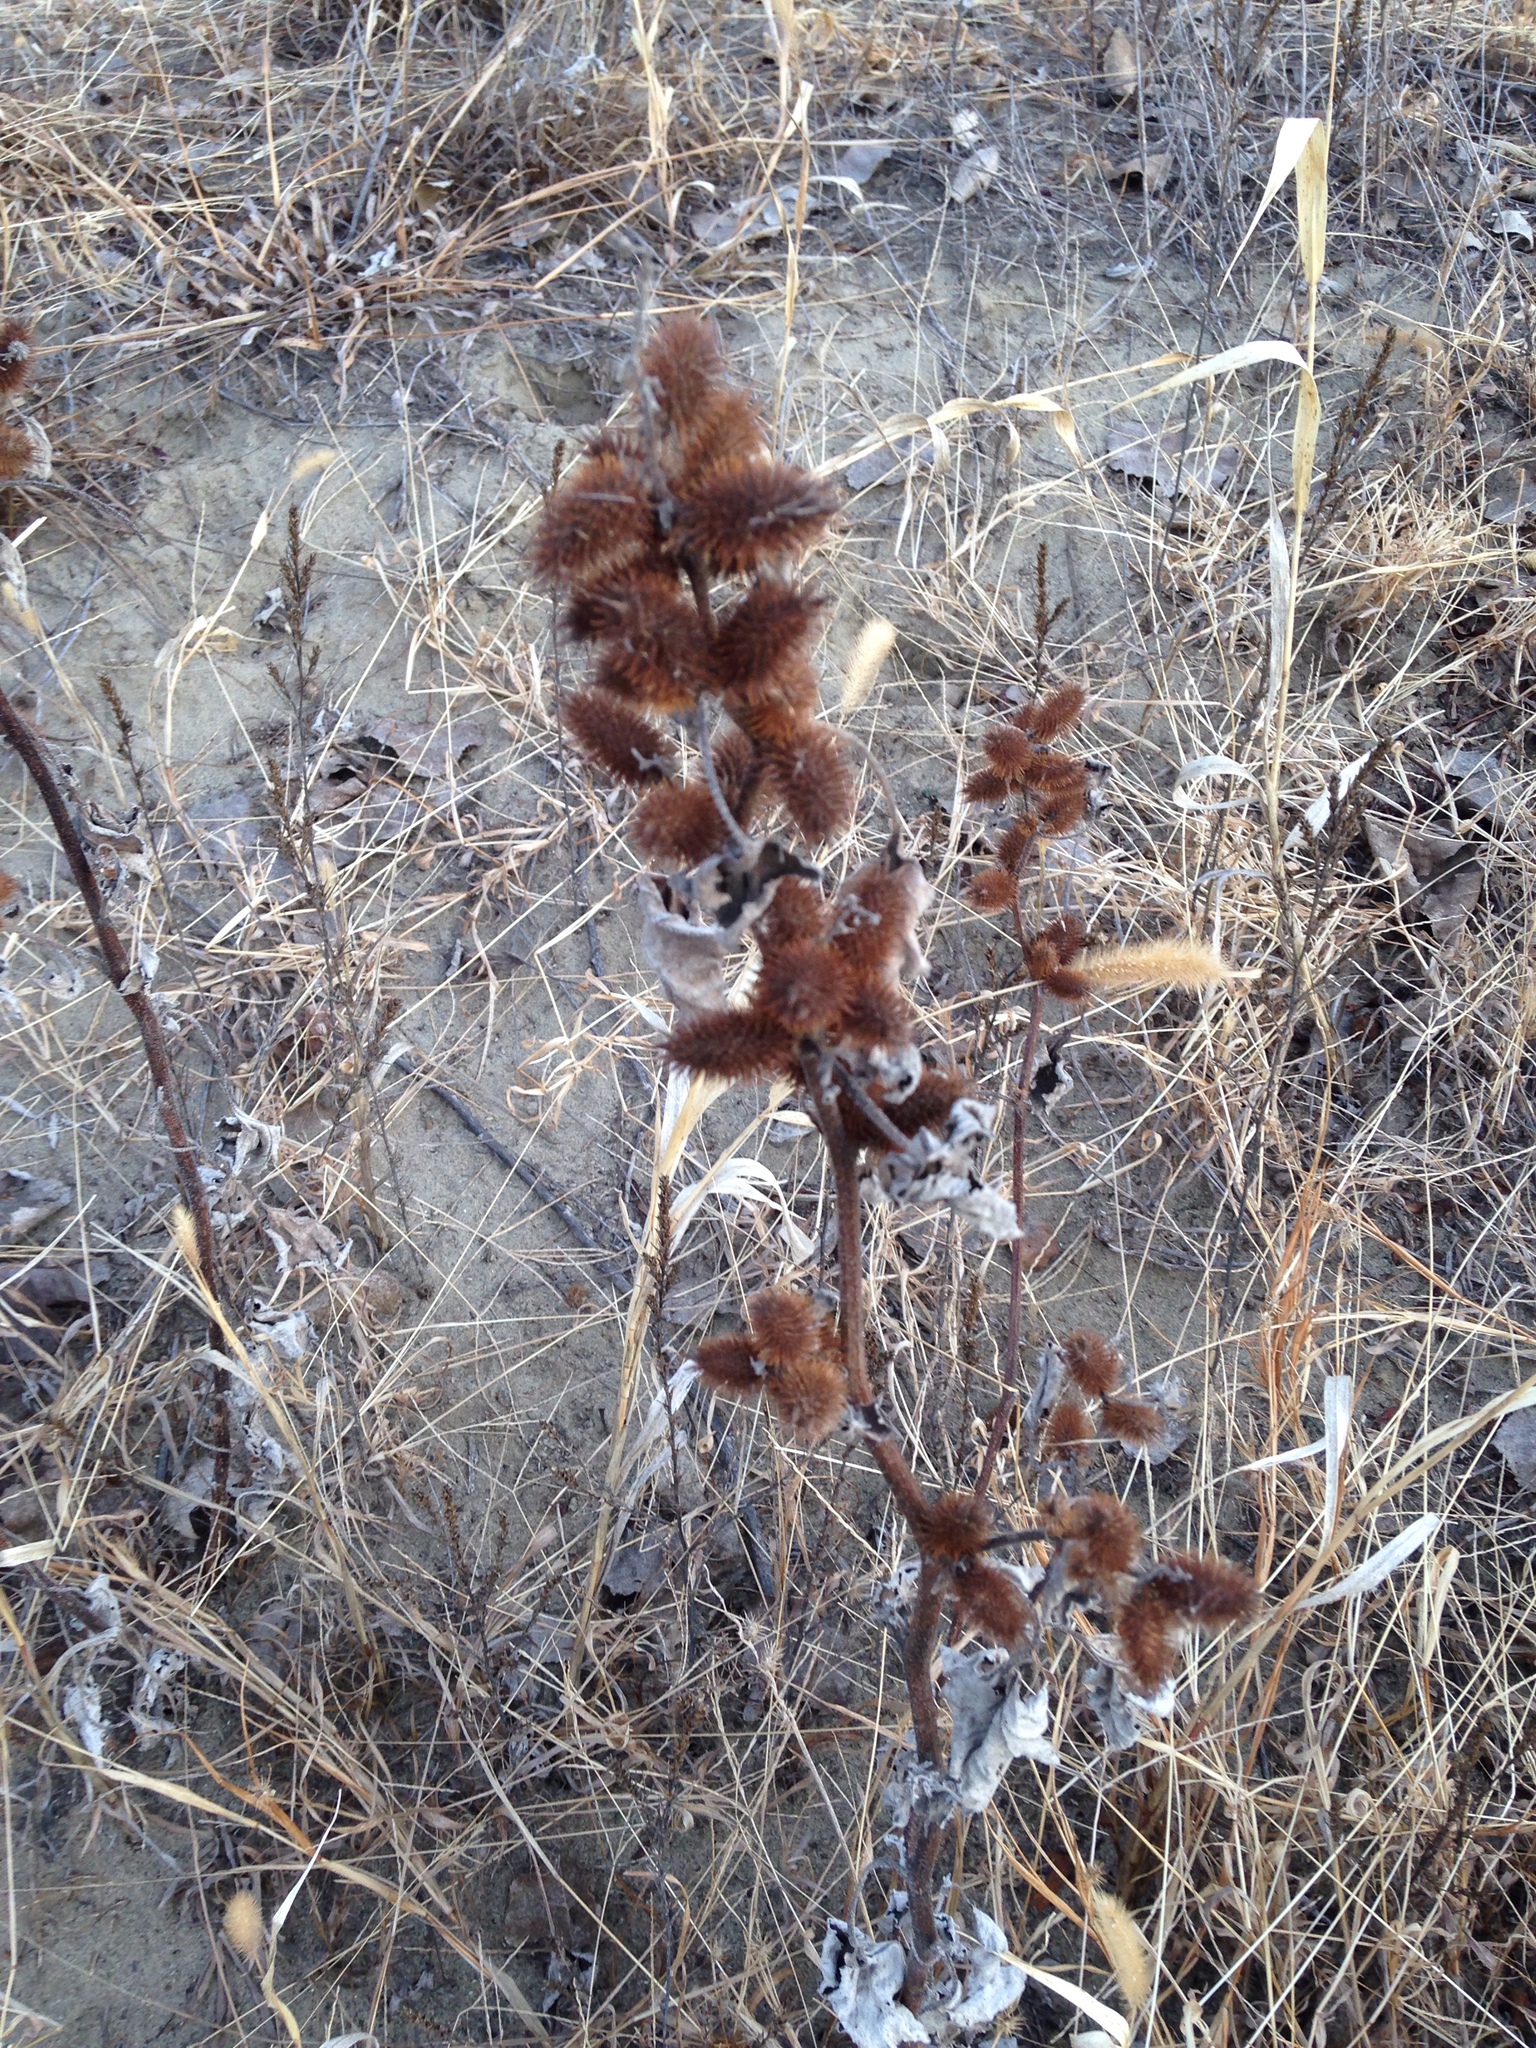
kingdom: Plantae
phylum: Tracheophyta
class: Magnoliopsida
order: Asterales
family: Asteraceae
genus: Xanthium
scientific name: Xanthium strumarium
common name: Rough cocklebur
